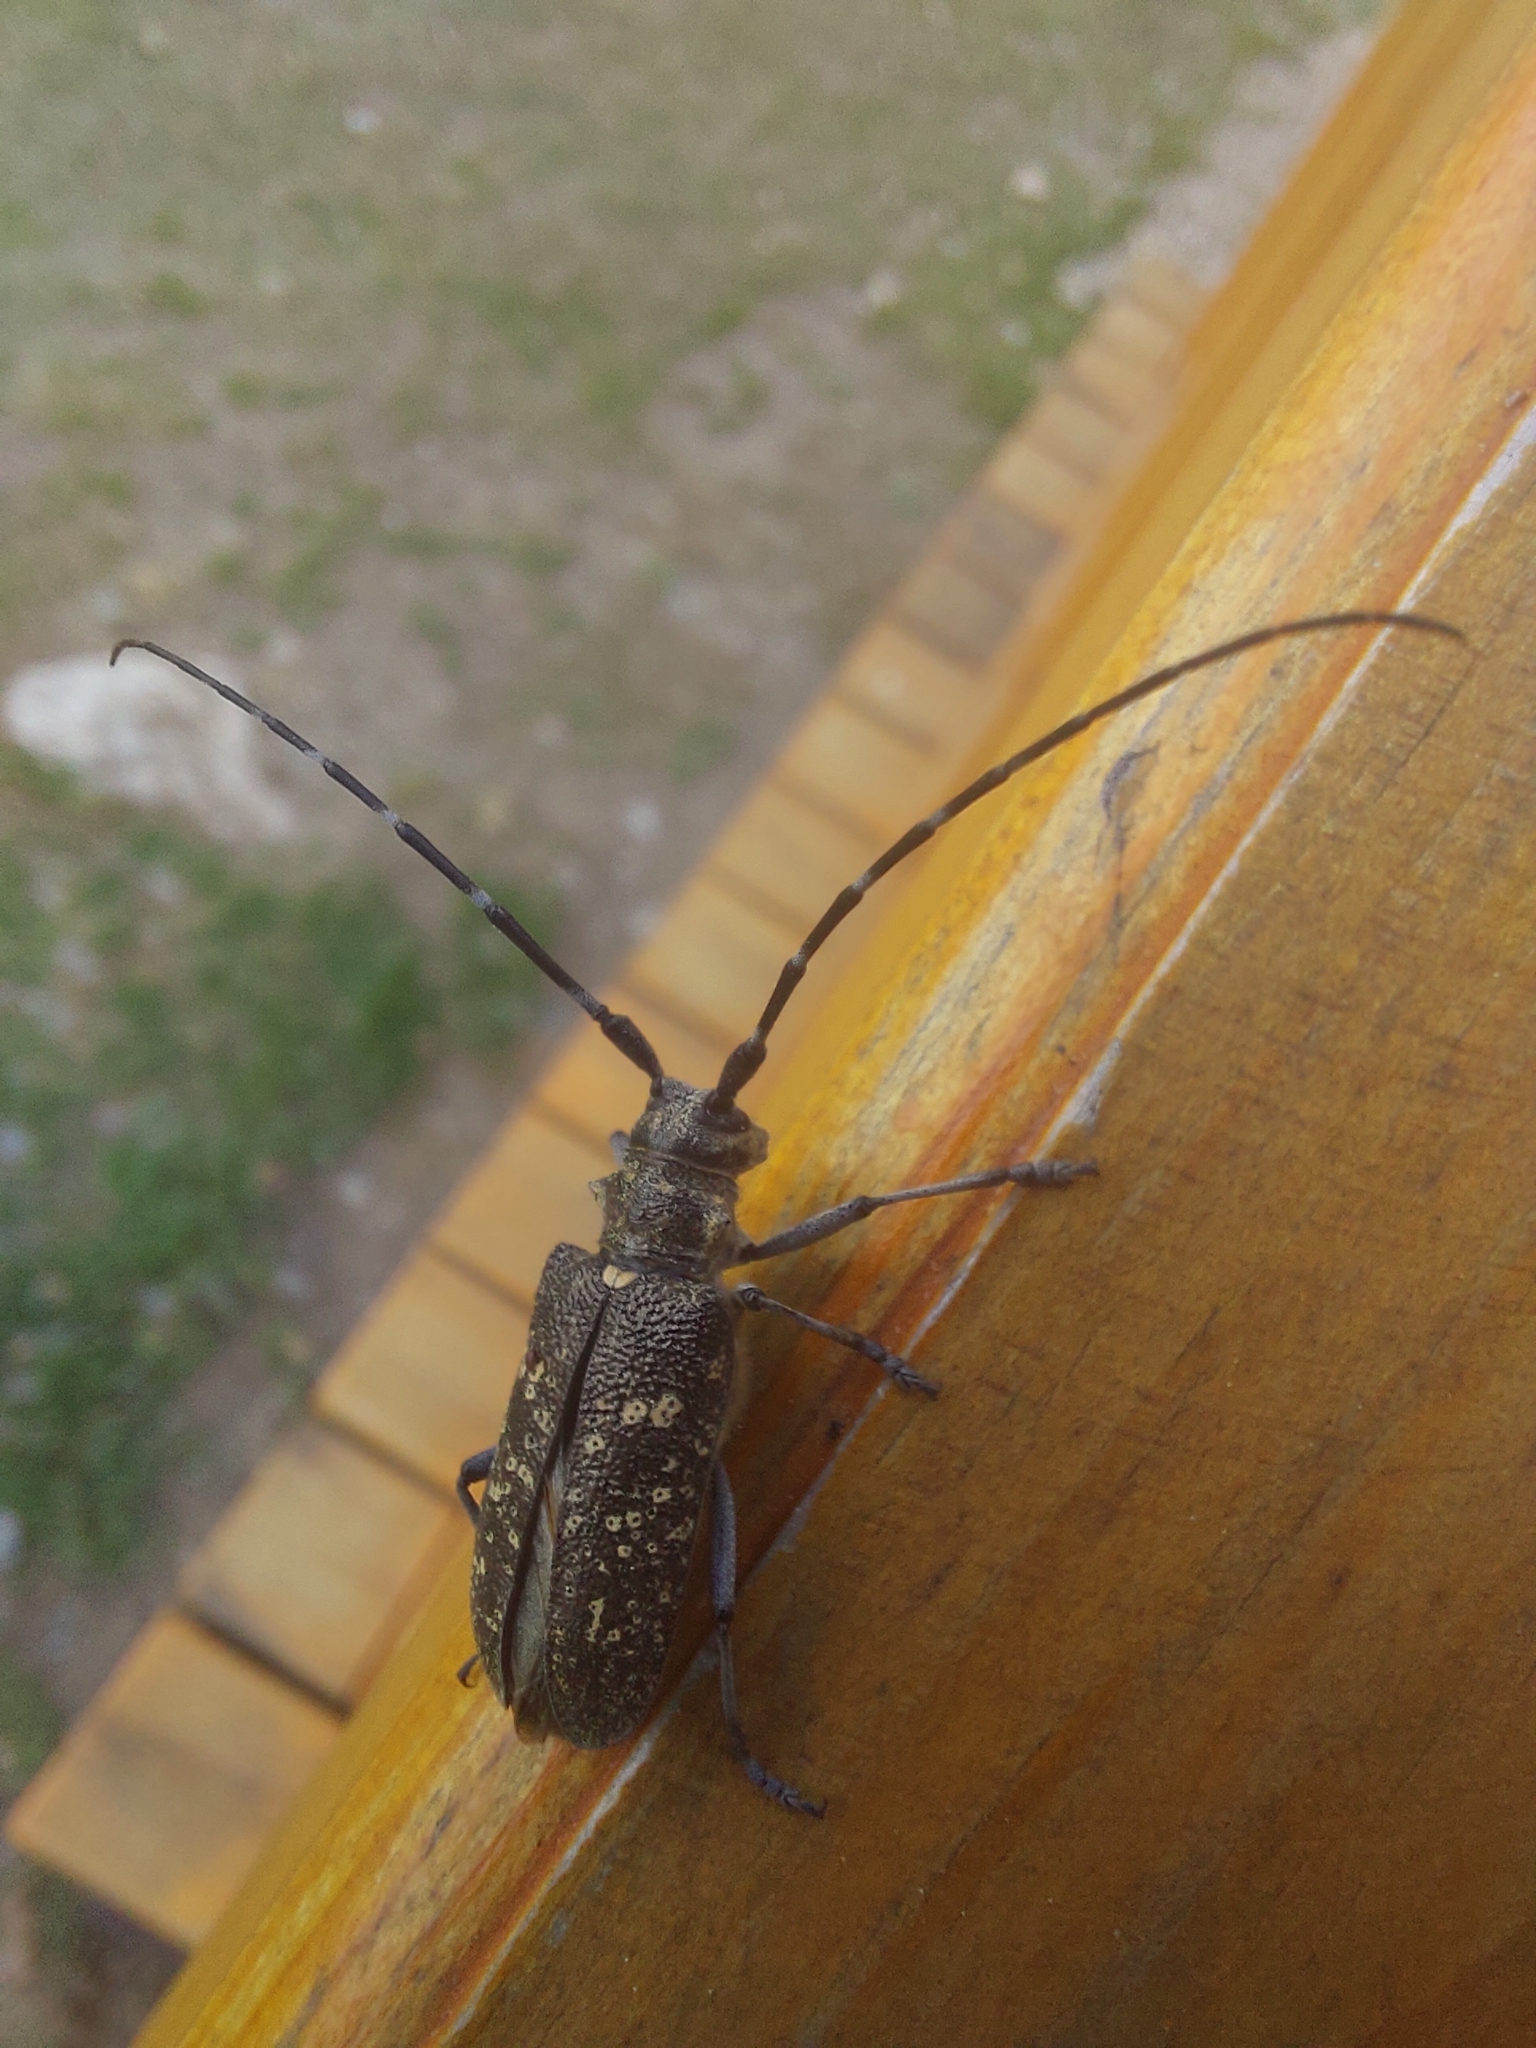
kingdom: Animalia
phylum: Arthropoda
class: Insecta
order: Coleoptera
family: Cerambycidae
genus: Monochamus
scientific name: Monochamus sutor
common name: Pine sawyer
